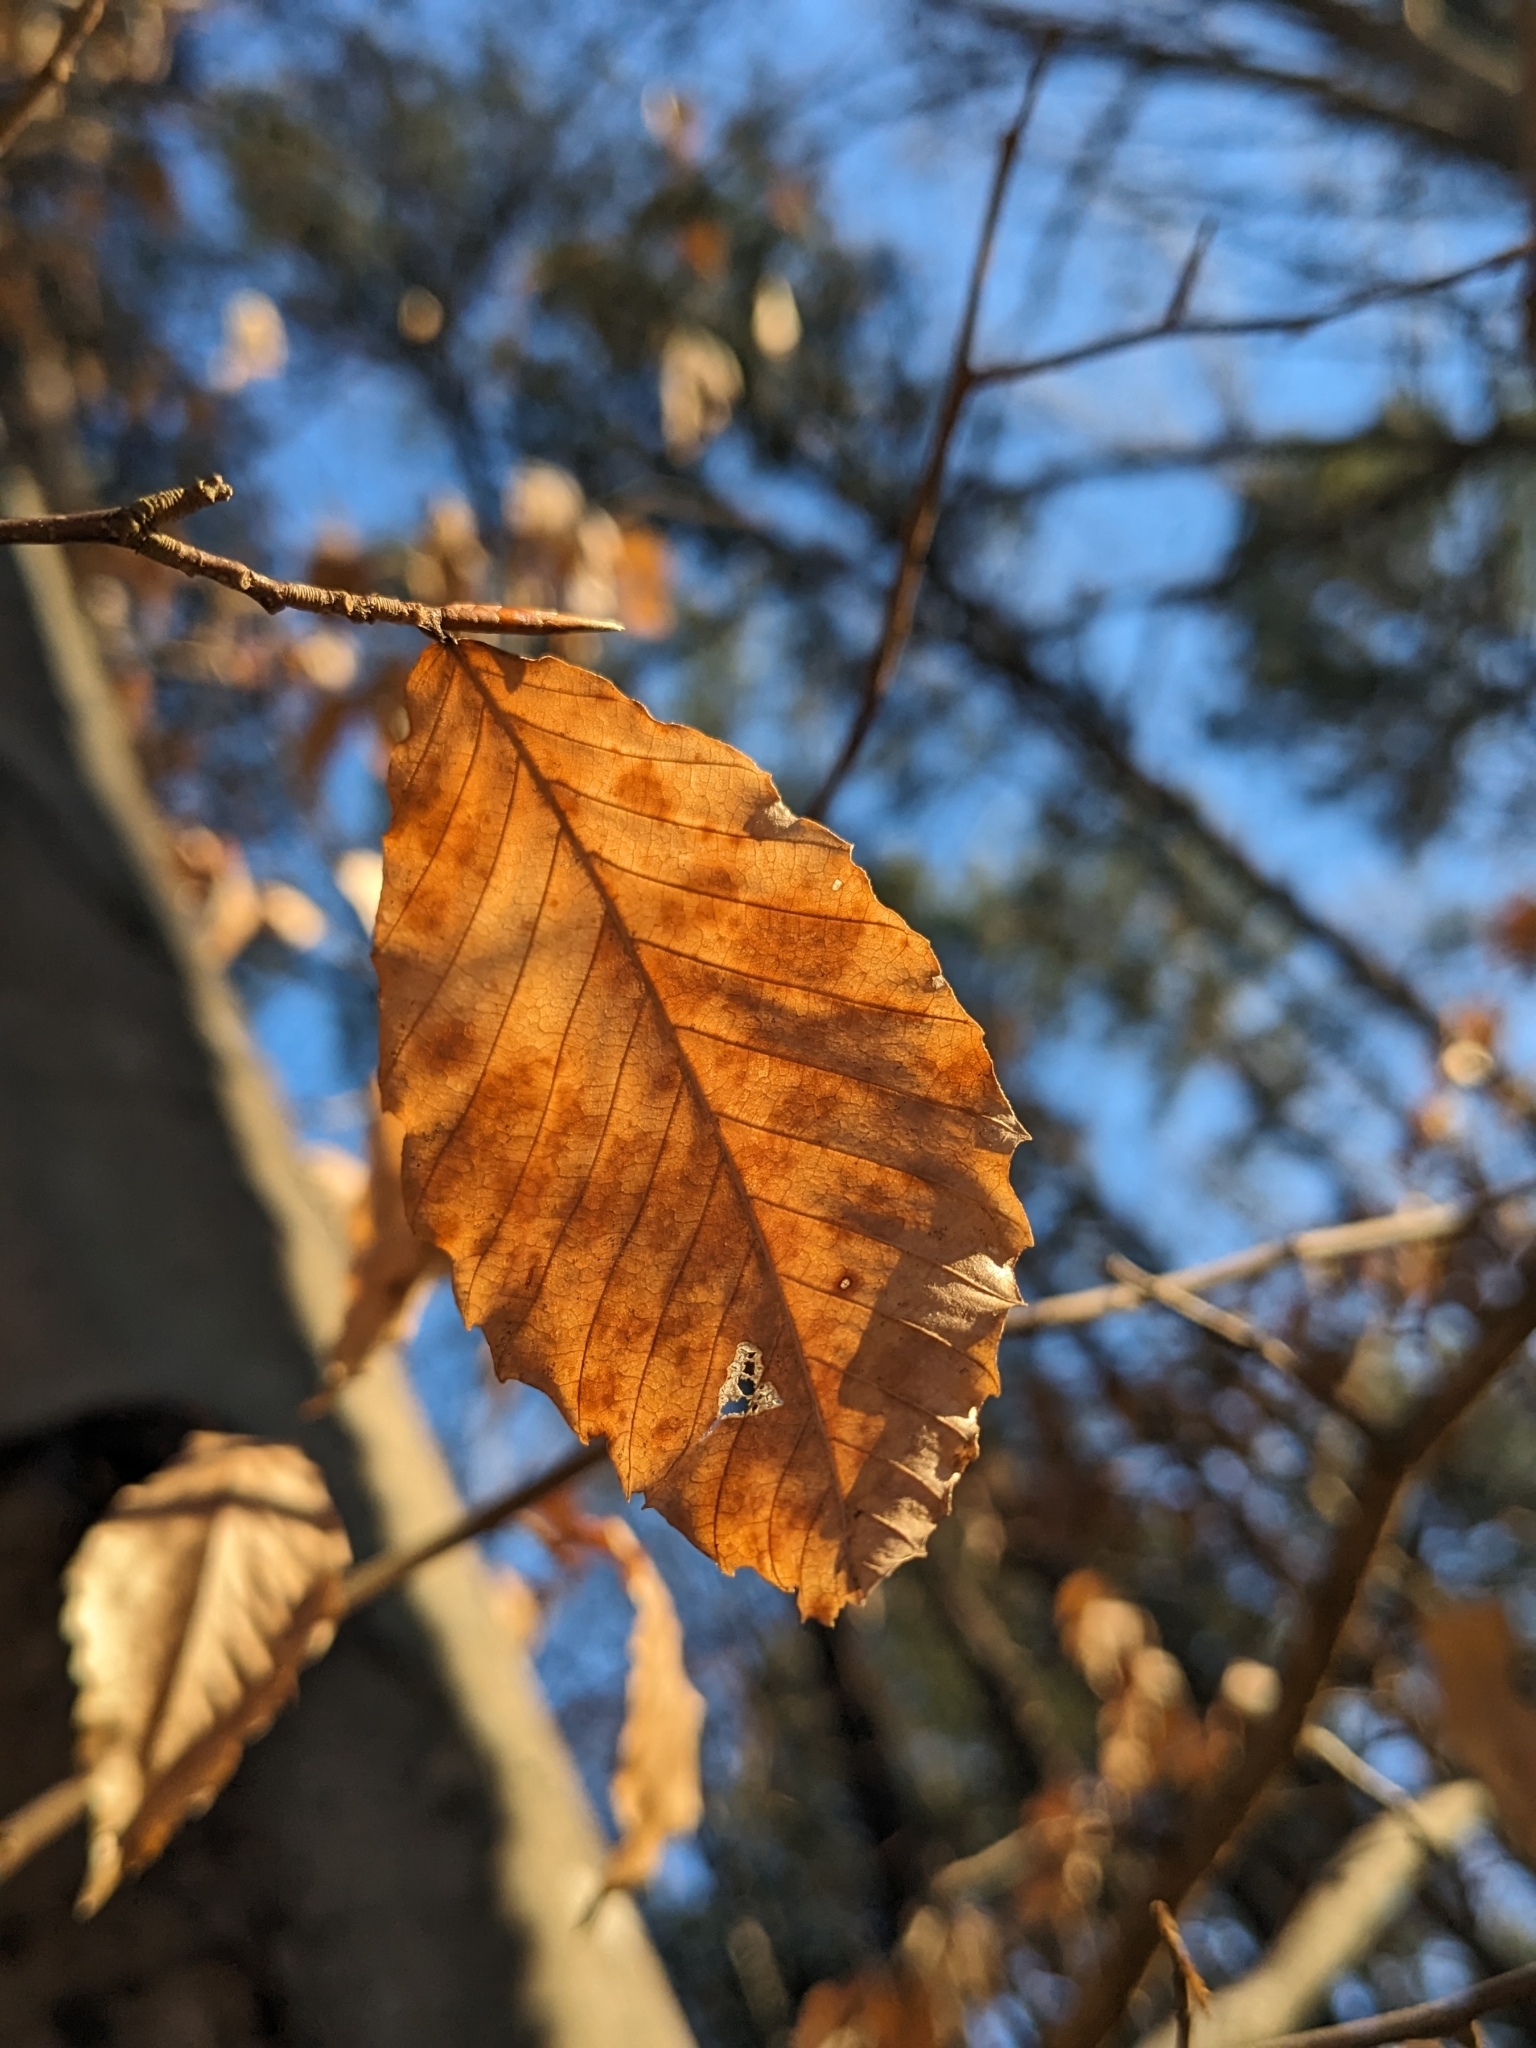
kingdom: Plantae
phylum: Tracheophyta
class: Magnoliopsida
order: Fagales
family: Fagaceae
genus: Fagus
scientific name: Fagus grandifolia
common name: American beech
